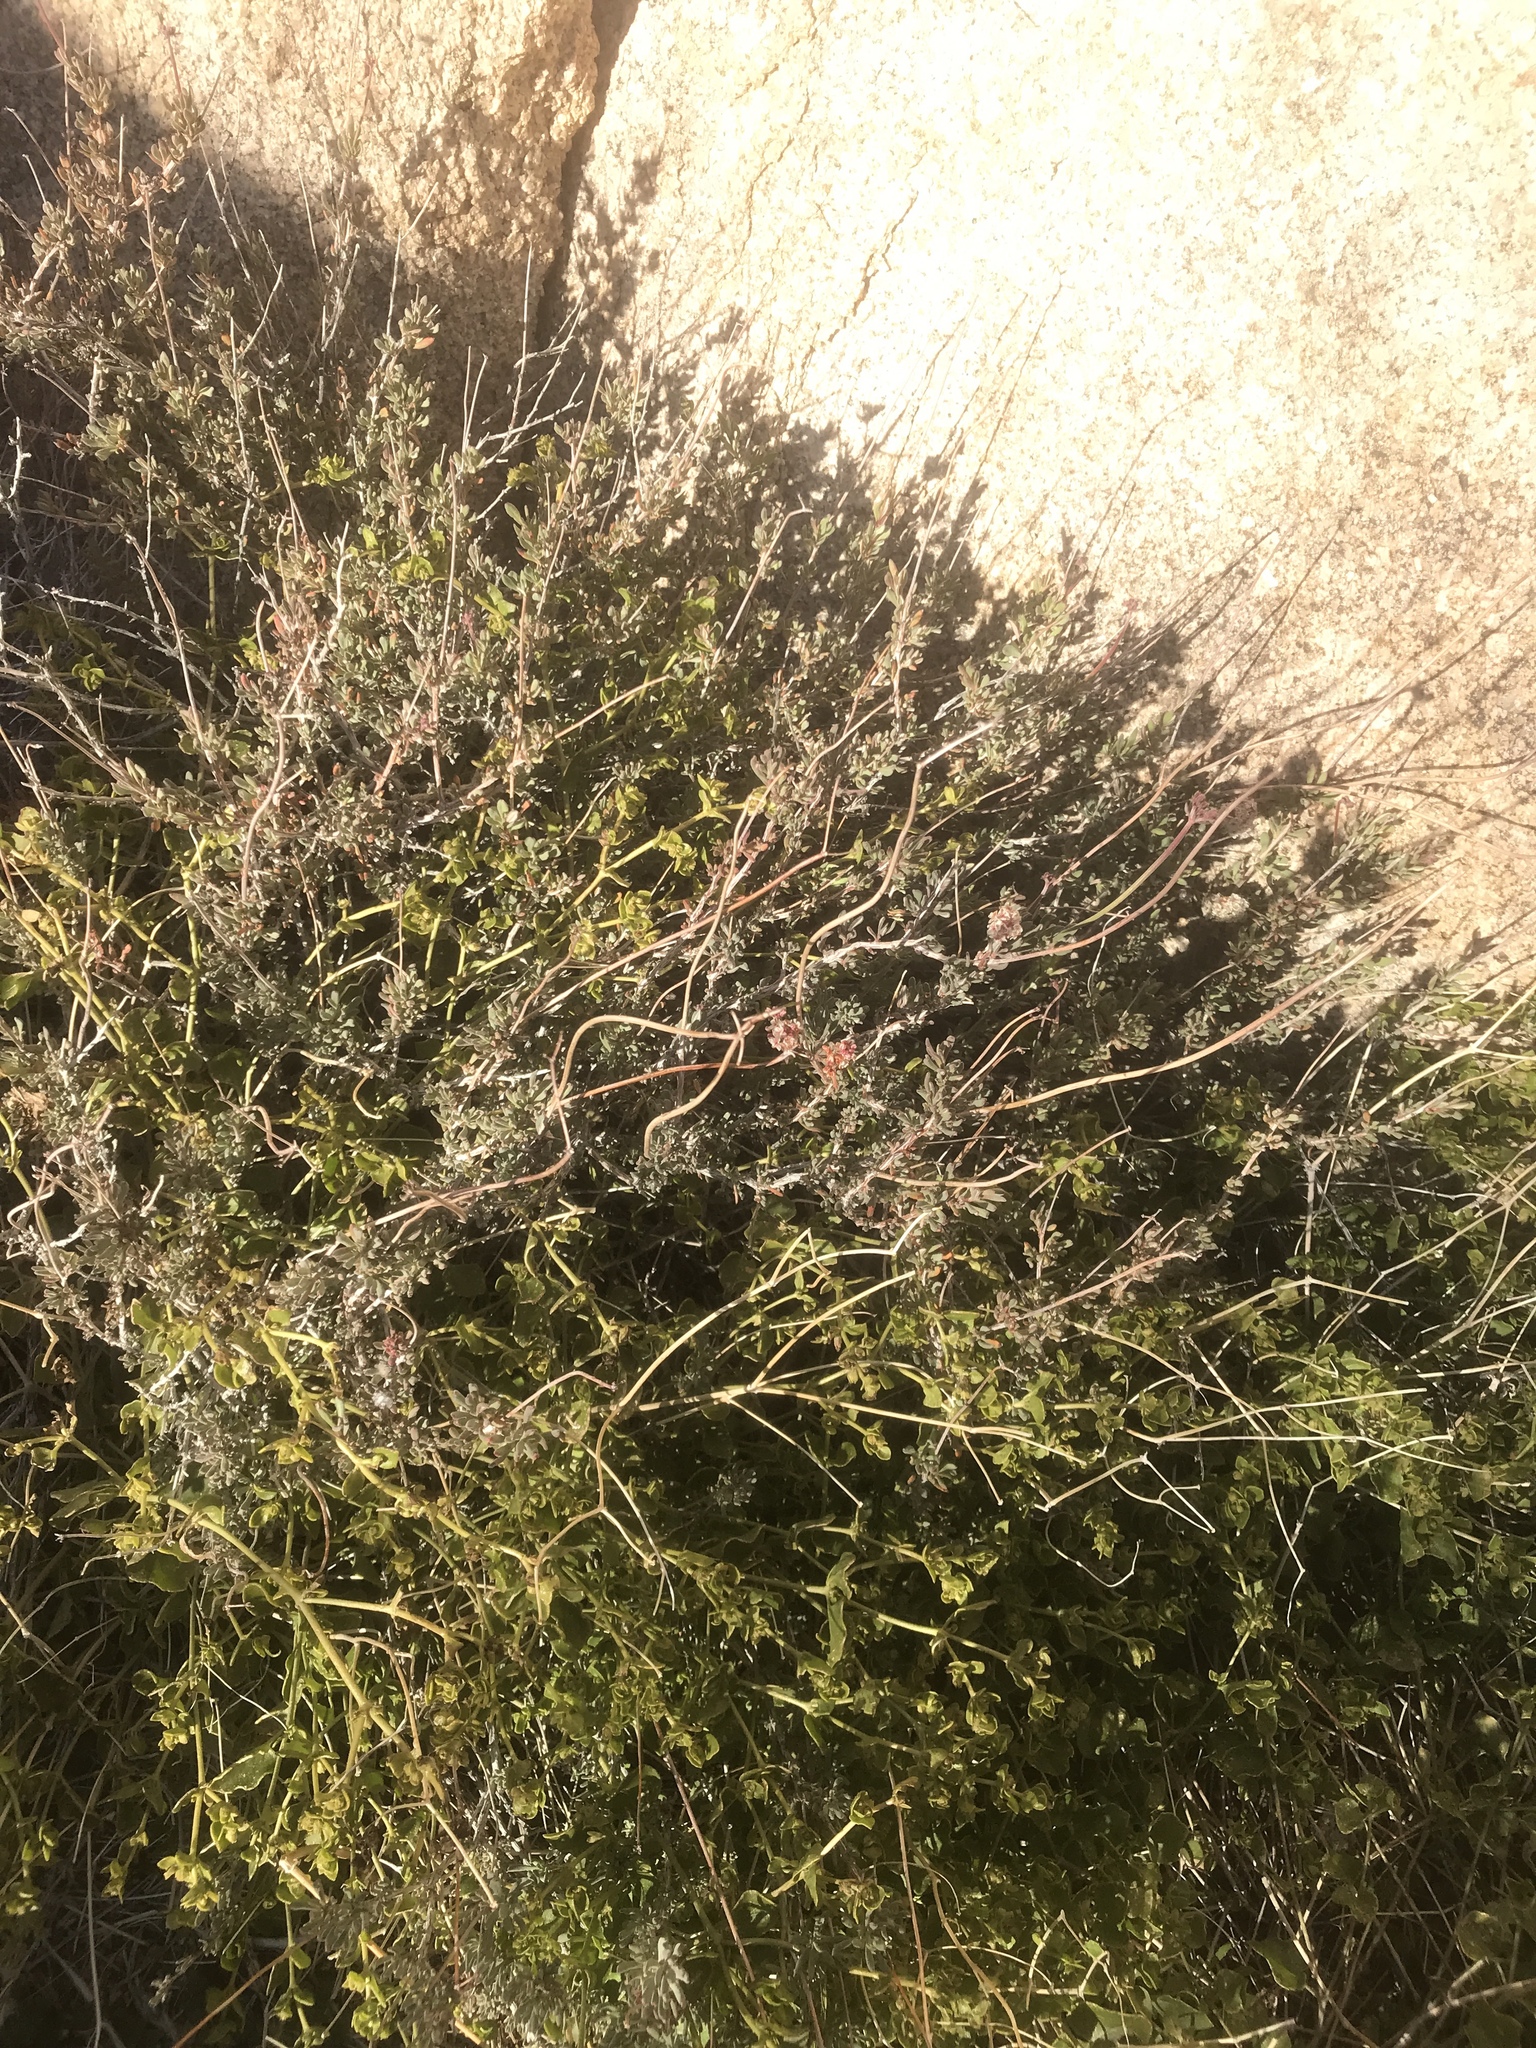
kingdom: Plantae
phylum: Tracheophyta
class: Magnoliopsida
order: Caryophyllales
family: Polygonaceae
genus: Eriogonum
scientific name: Eriogonum fasciculatum
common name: California wild buckwheat
